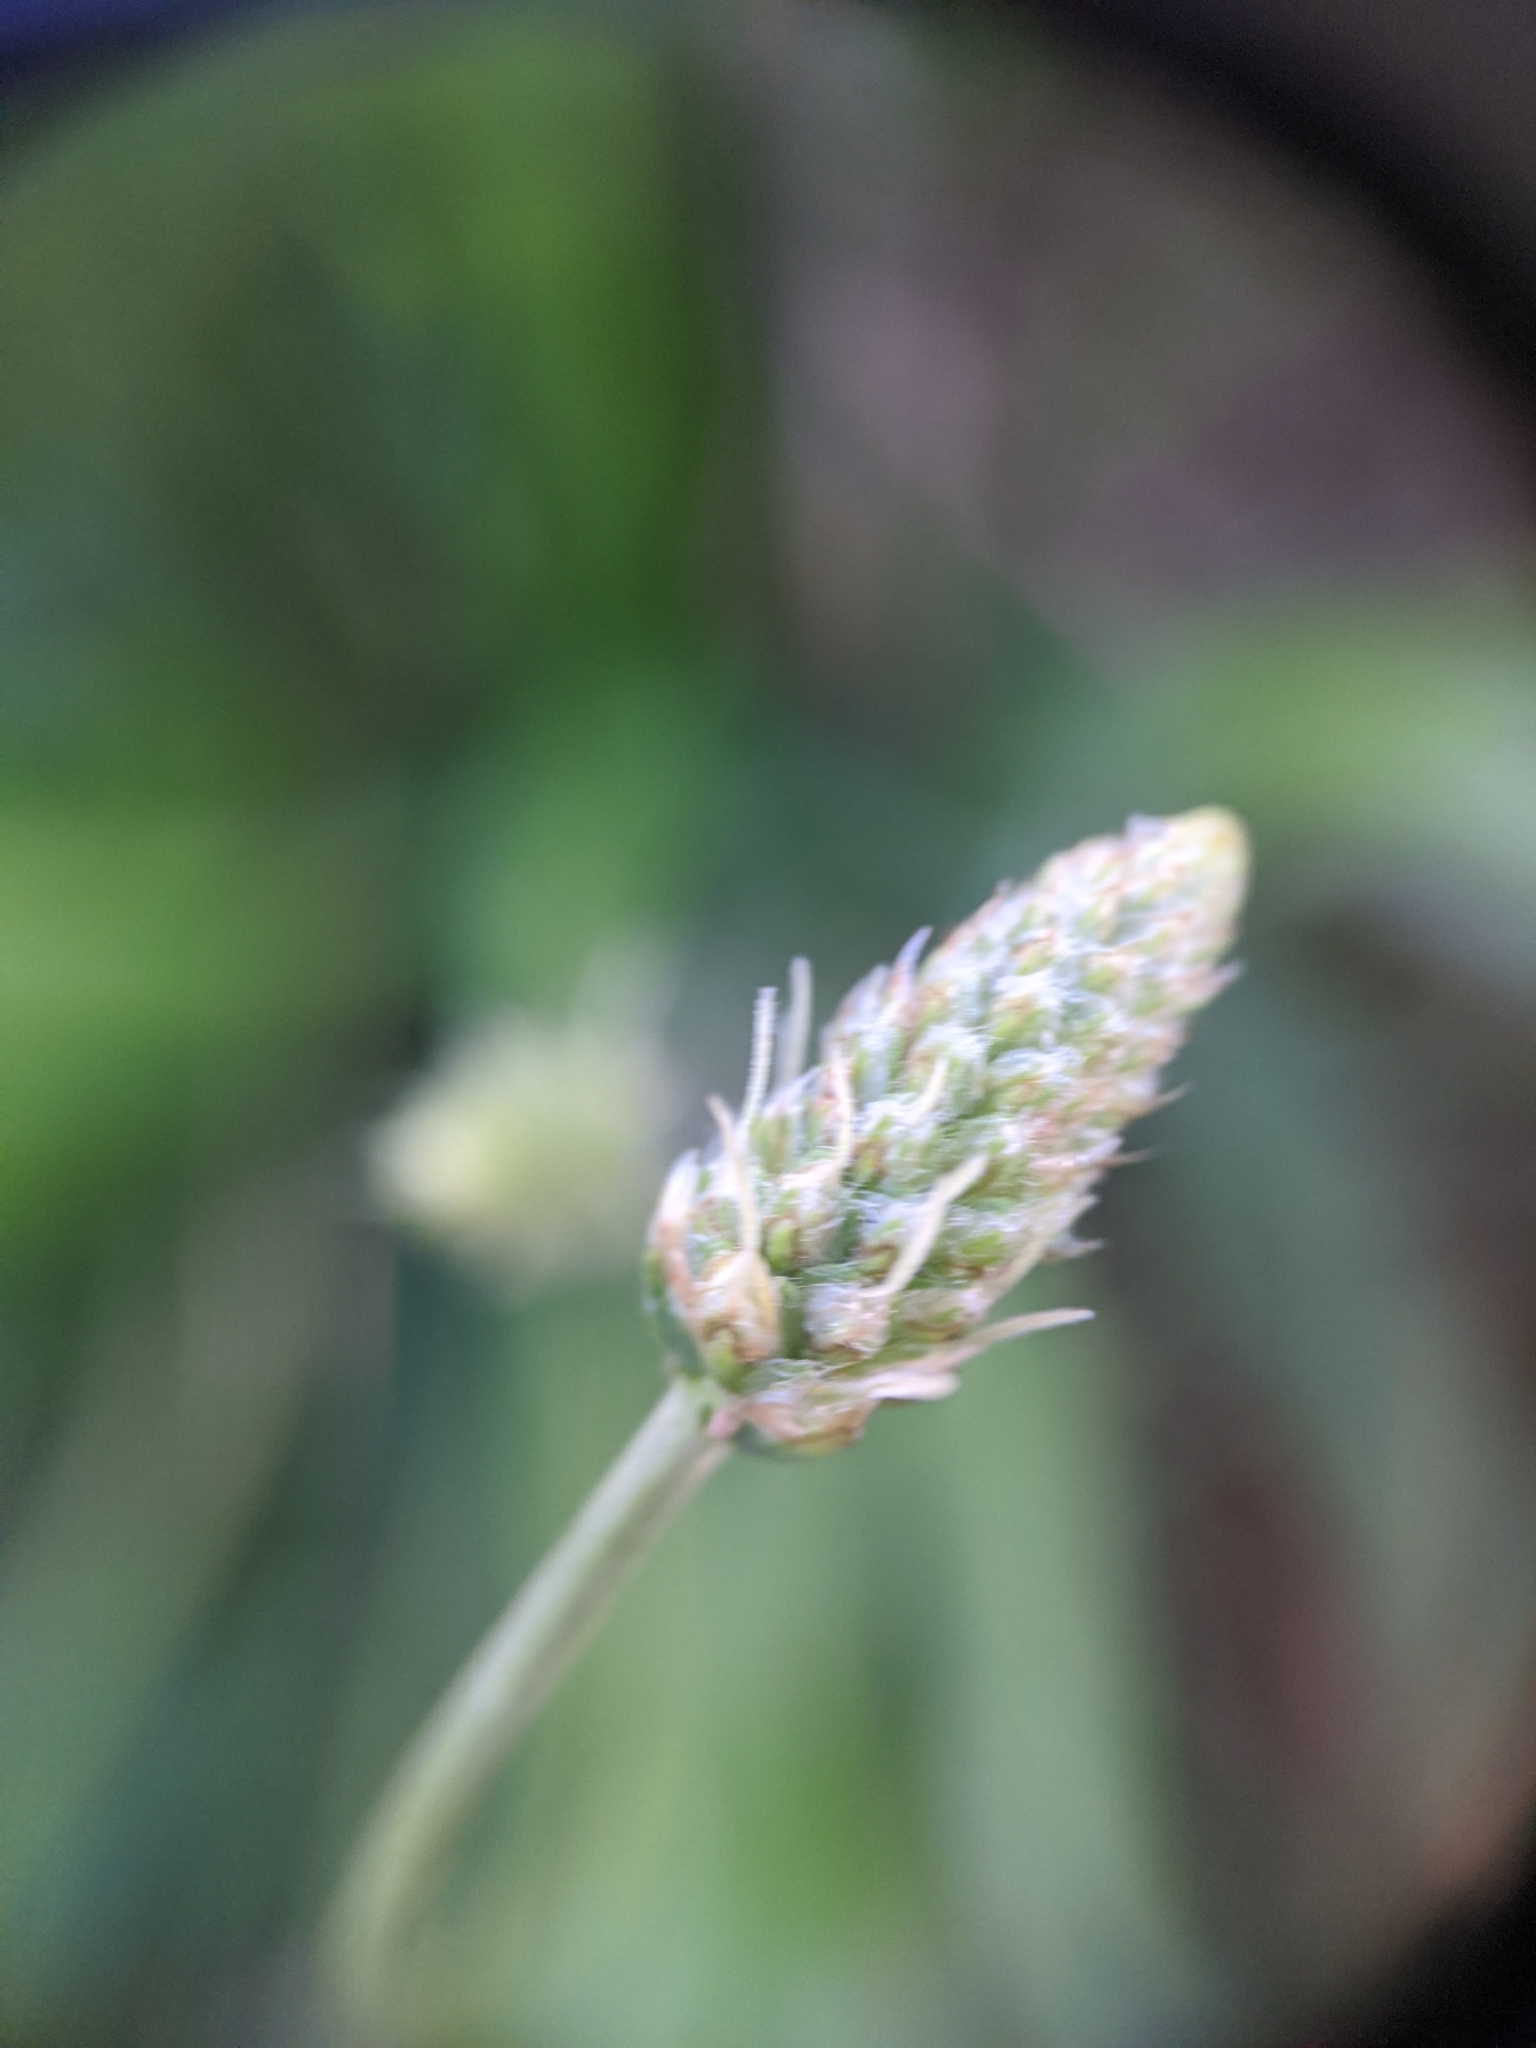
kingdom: Plantae
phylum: Tracheophyta
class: Magnoliopsida
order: Lamiales
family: Plantaginaceae
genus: Plantago
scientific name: Plantago lanceolata
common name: Ribwort plantain
